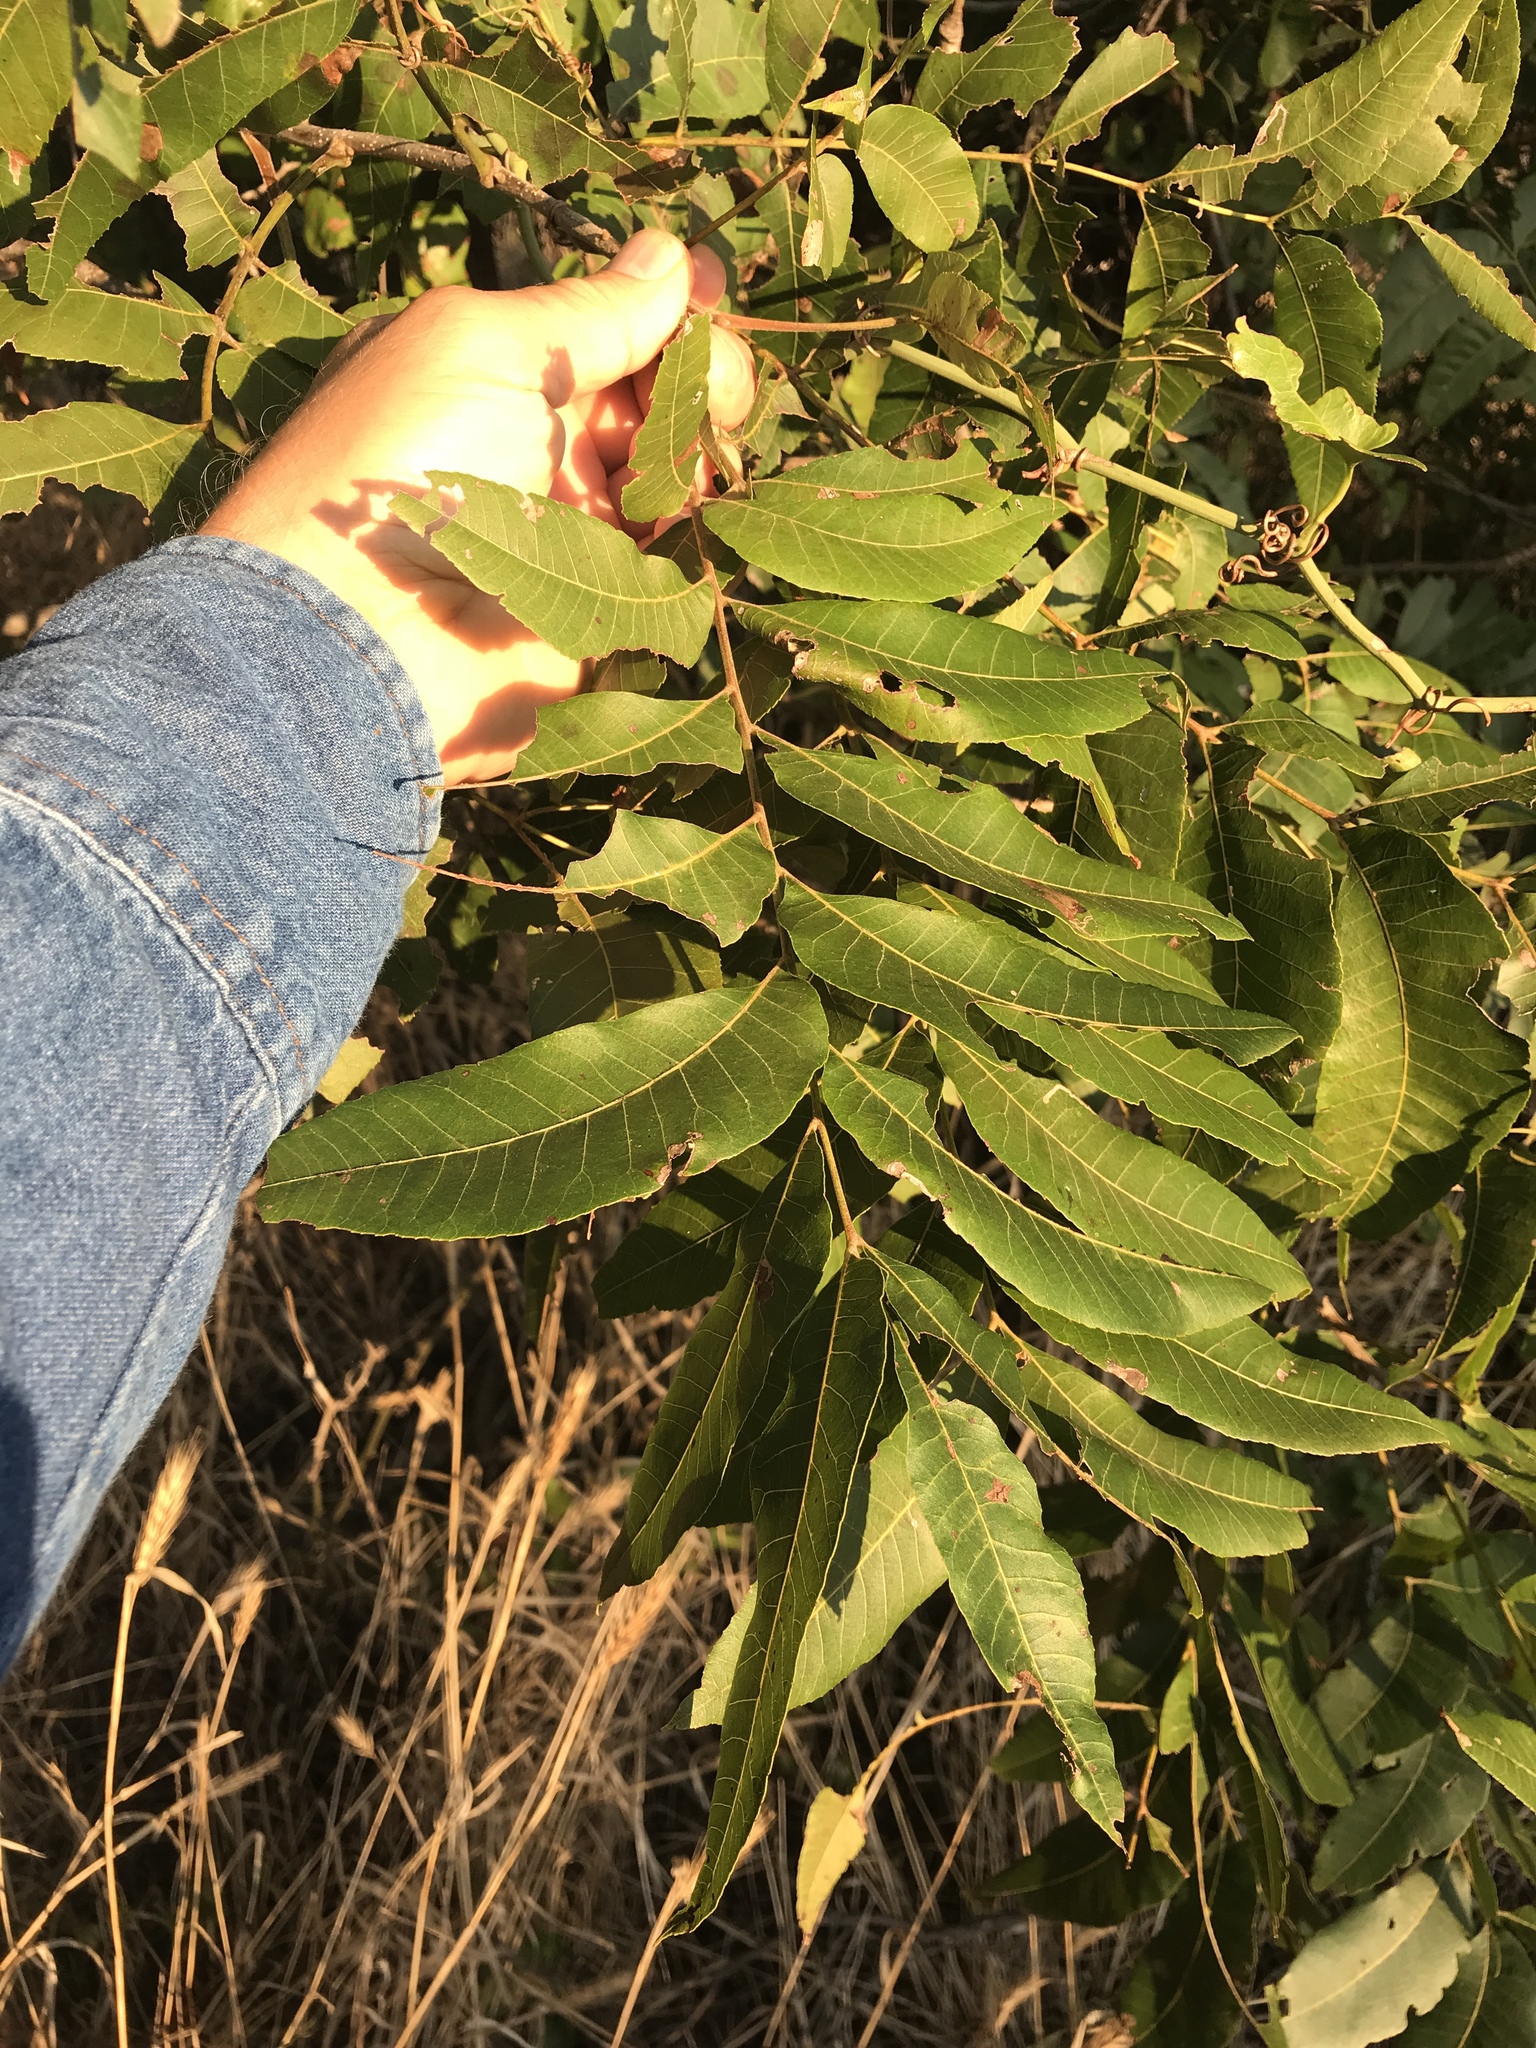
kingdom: Plantae
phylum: Tracheophyta
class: Magnoliopsida
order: Fagales
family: Juglandaceae
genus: Carya
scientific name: Carya illinoinensis
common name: Pecan
